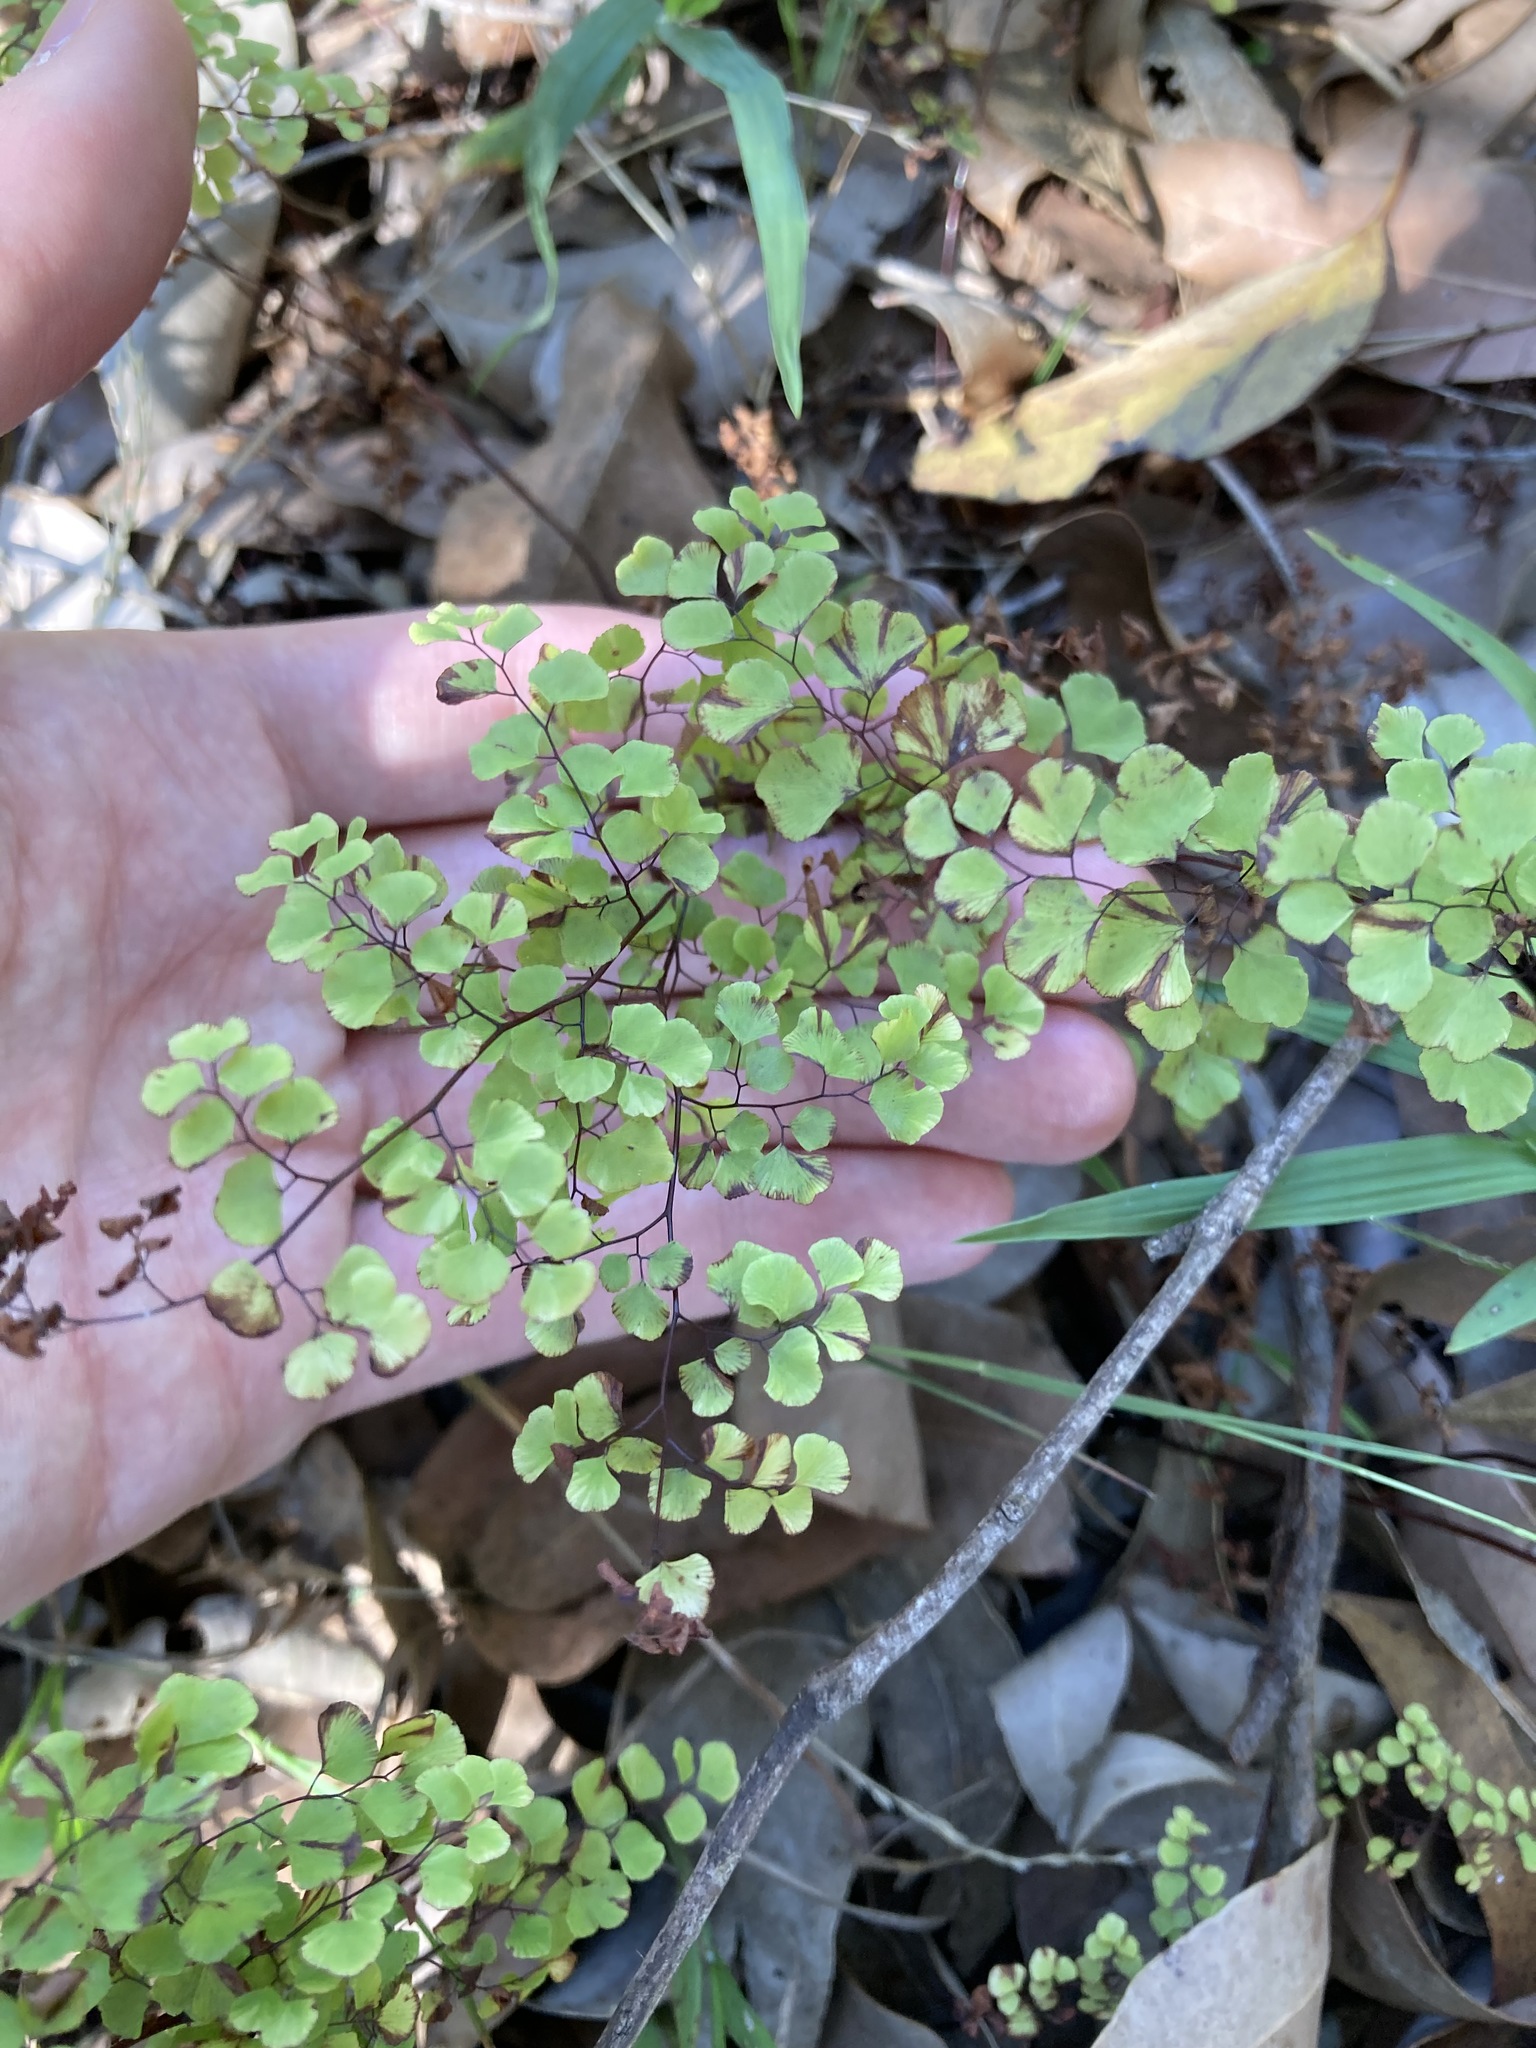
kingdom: Plantae
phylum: Tracheophyta
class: Polypodiopsida
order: Polypodiales
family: Pteridaceae
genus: Adiantum
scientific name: Adiantum aethiopicum
